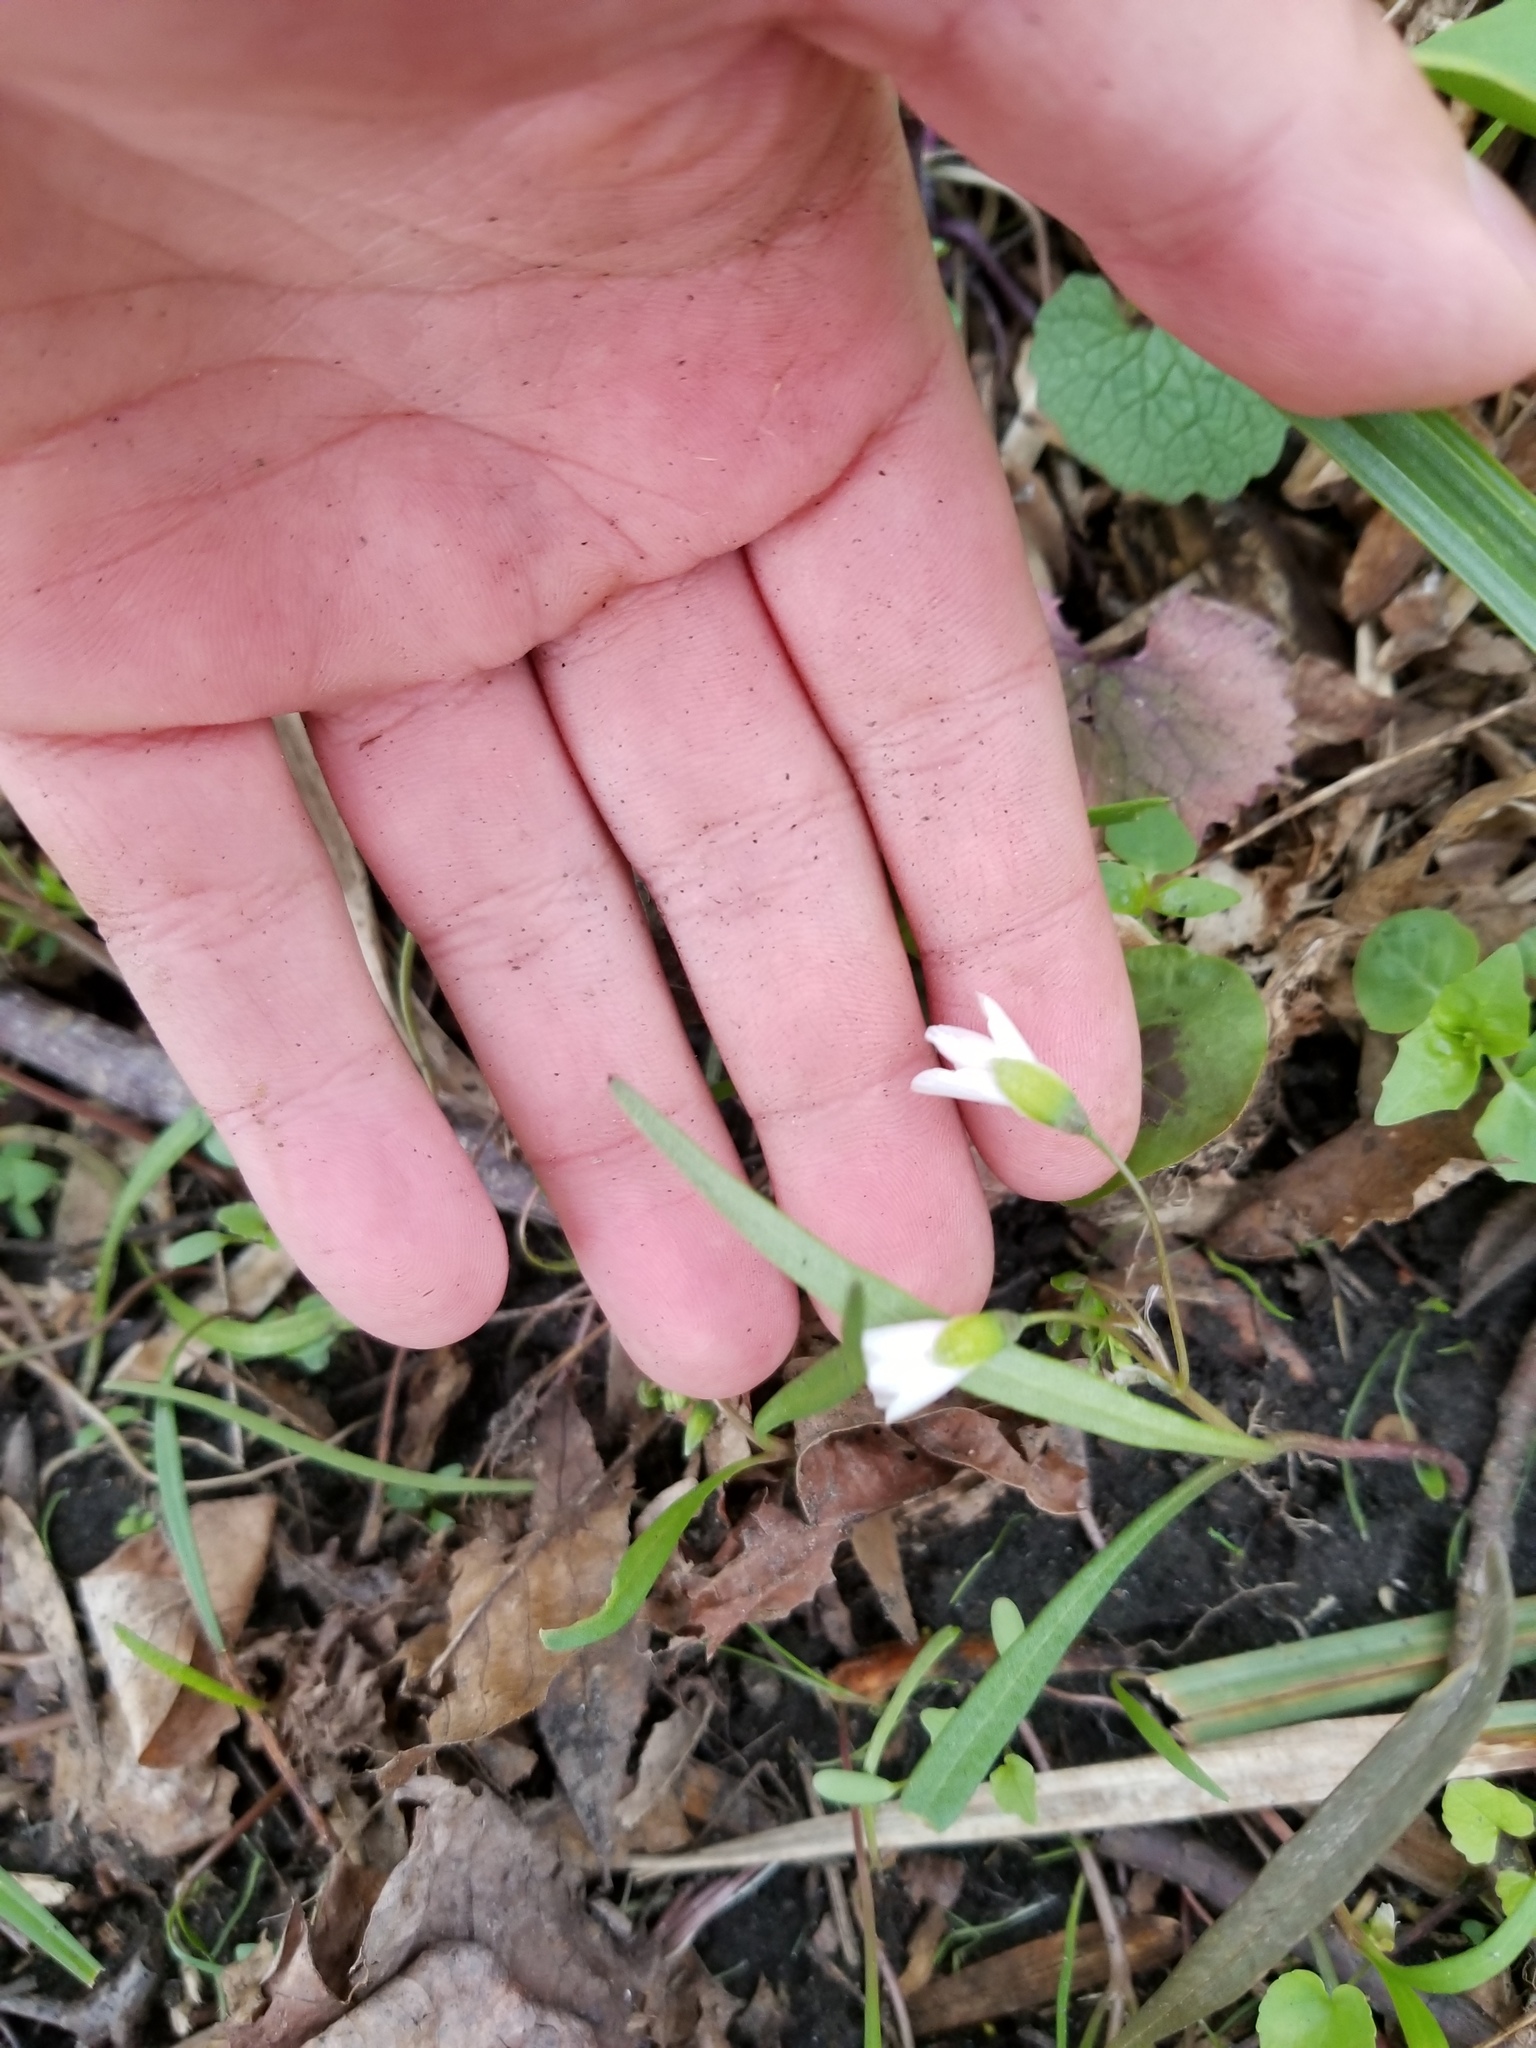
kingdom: Plantae
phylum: Tracheophyta
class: Magnoliopsida
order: Caryophyllales
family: Montiaceae
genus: Claytonia
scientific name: Claytonia virginica
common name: Virginia springbeauty
